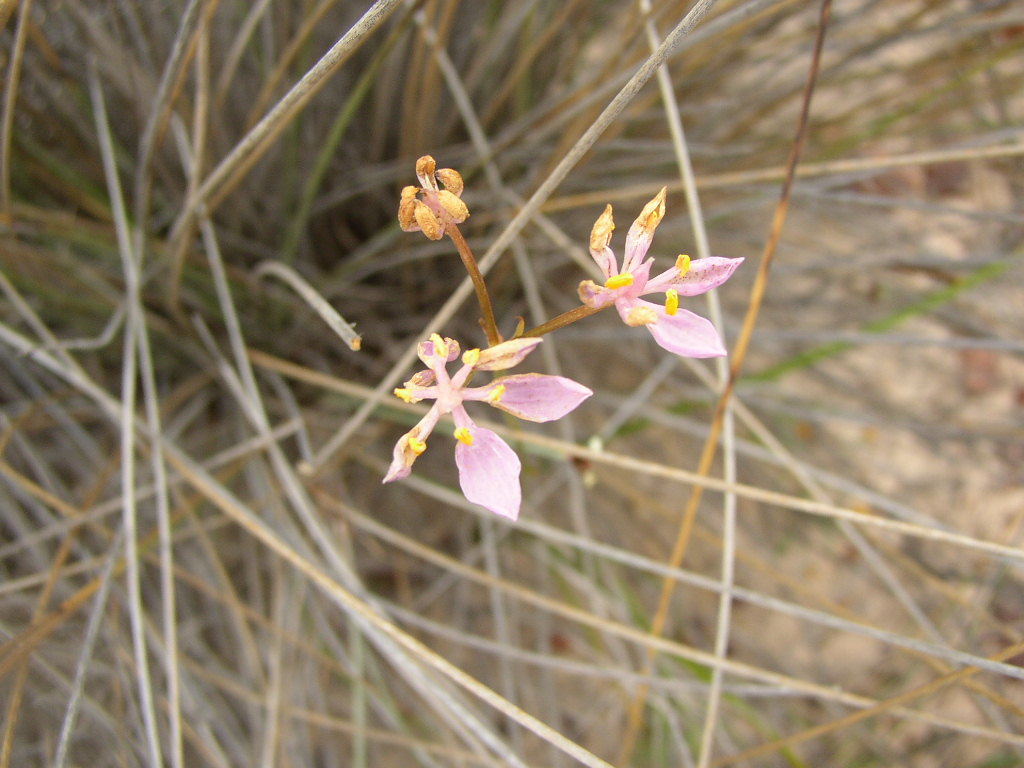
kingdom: Plantae
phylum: Tracheophyta
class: Liliopsida
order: Liliales
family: Colchicaceae
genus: Burchardia
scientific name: Burchardia rosea
